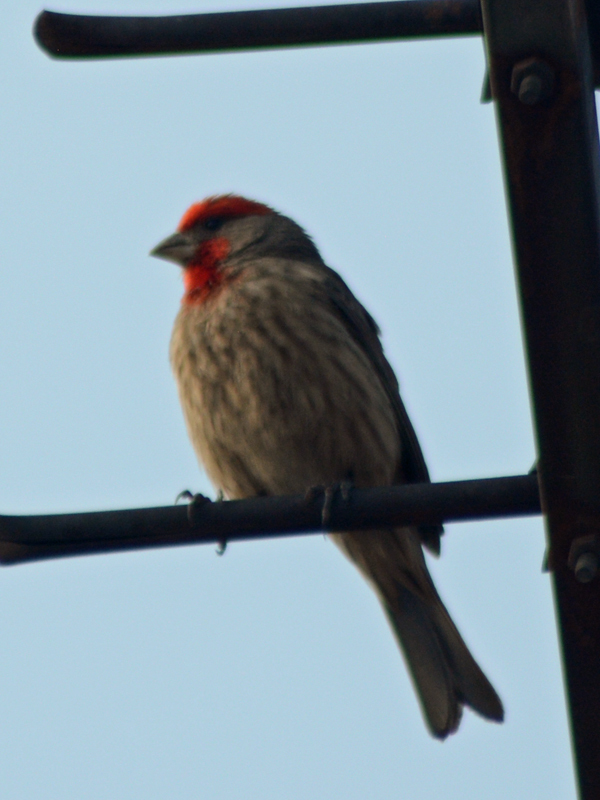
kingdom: Animalia
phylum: Chordata
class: Aves
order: Passeriformes
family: Fringillidae
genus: Haemorhous
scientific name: Haemorhous mexicanus
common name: House finch
